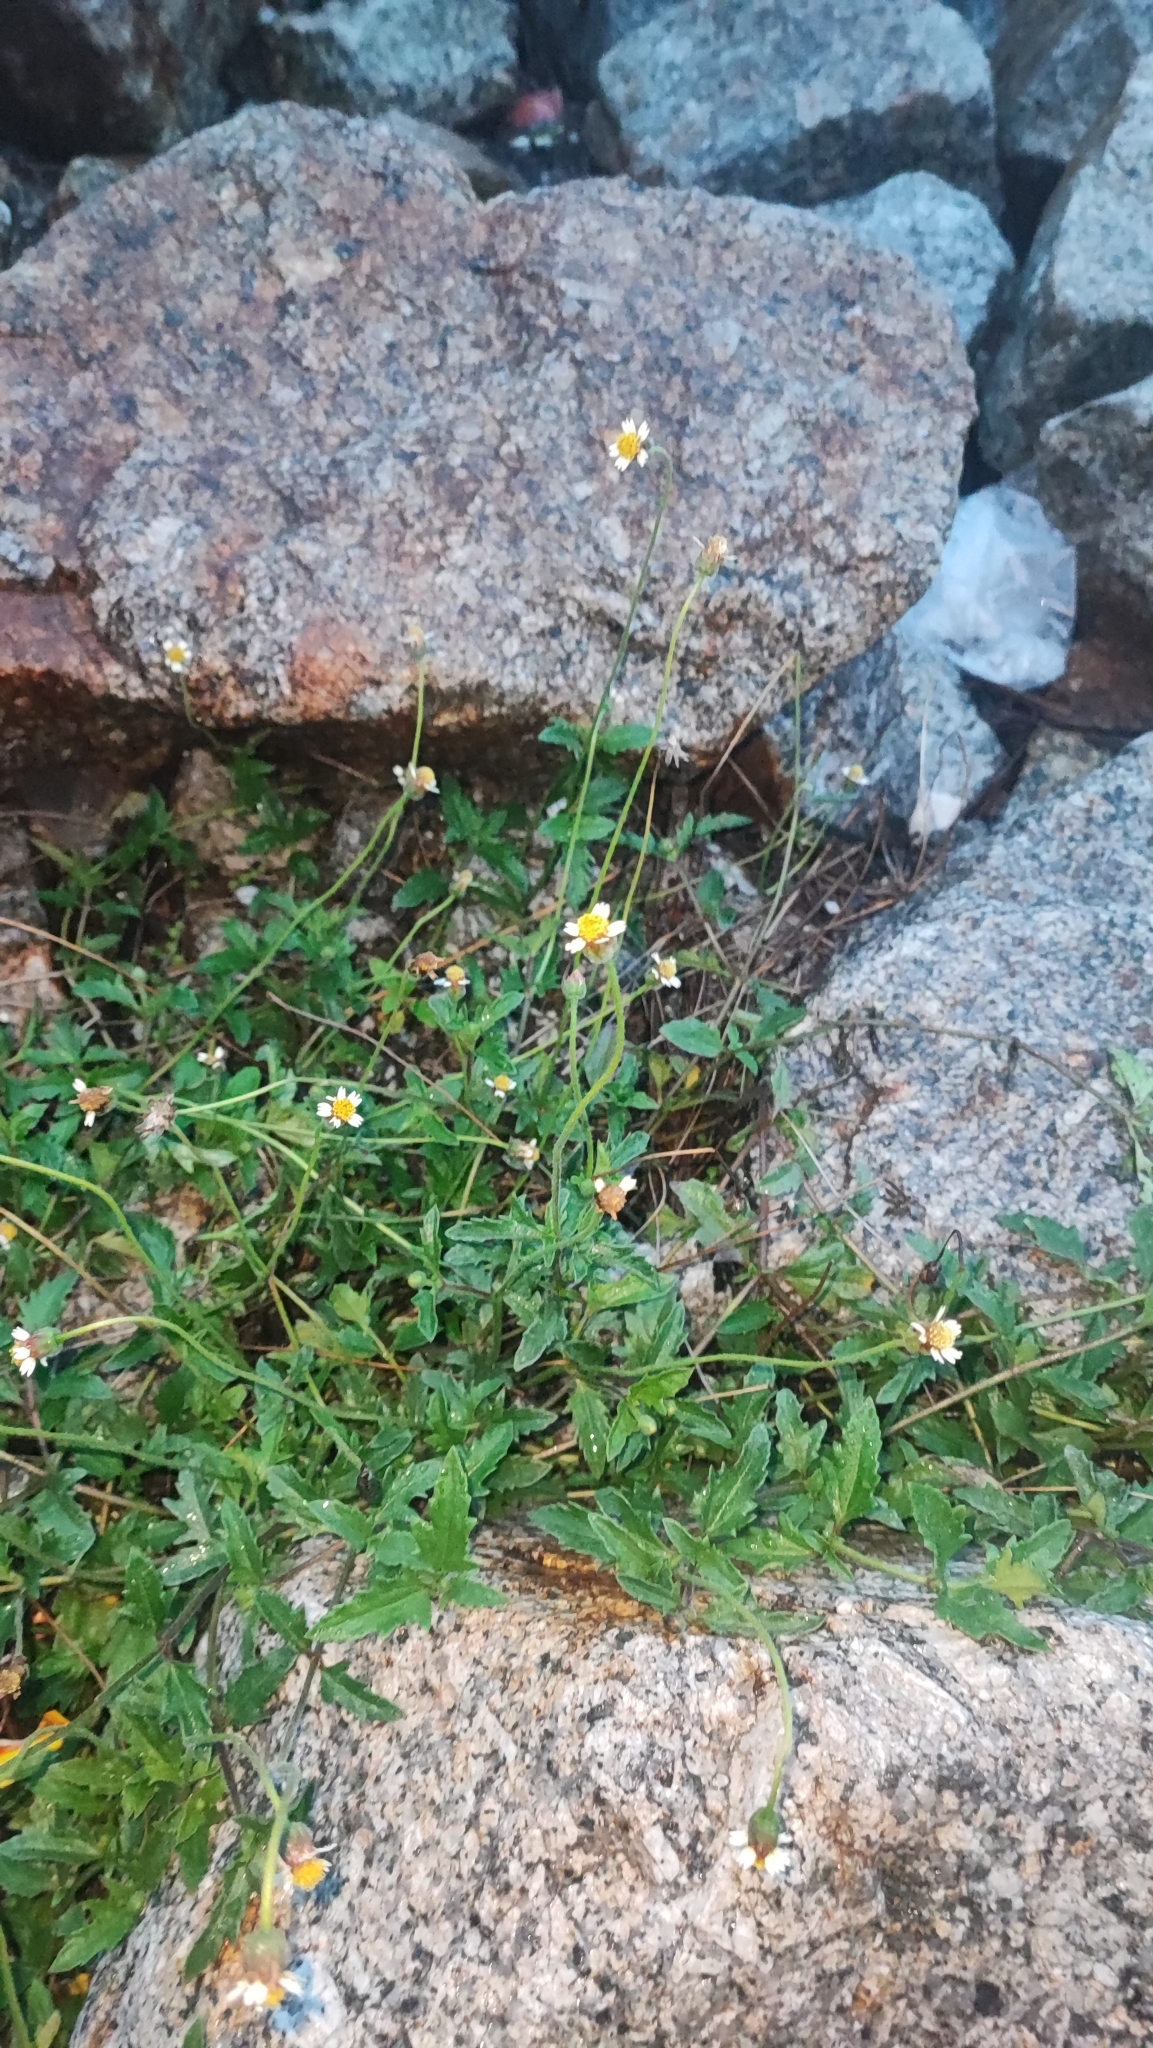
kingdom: Plantae
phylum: Tracheophyta
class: Magnoliopsida
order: Asterales
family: Asteraceae
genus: Tridax
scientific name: Tridax procumbens
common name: Coatbuttons
